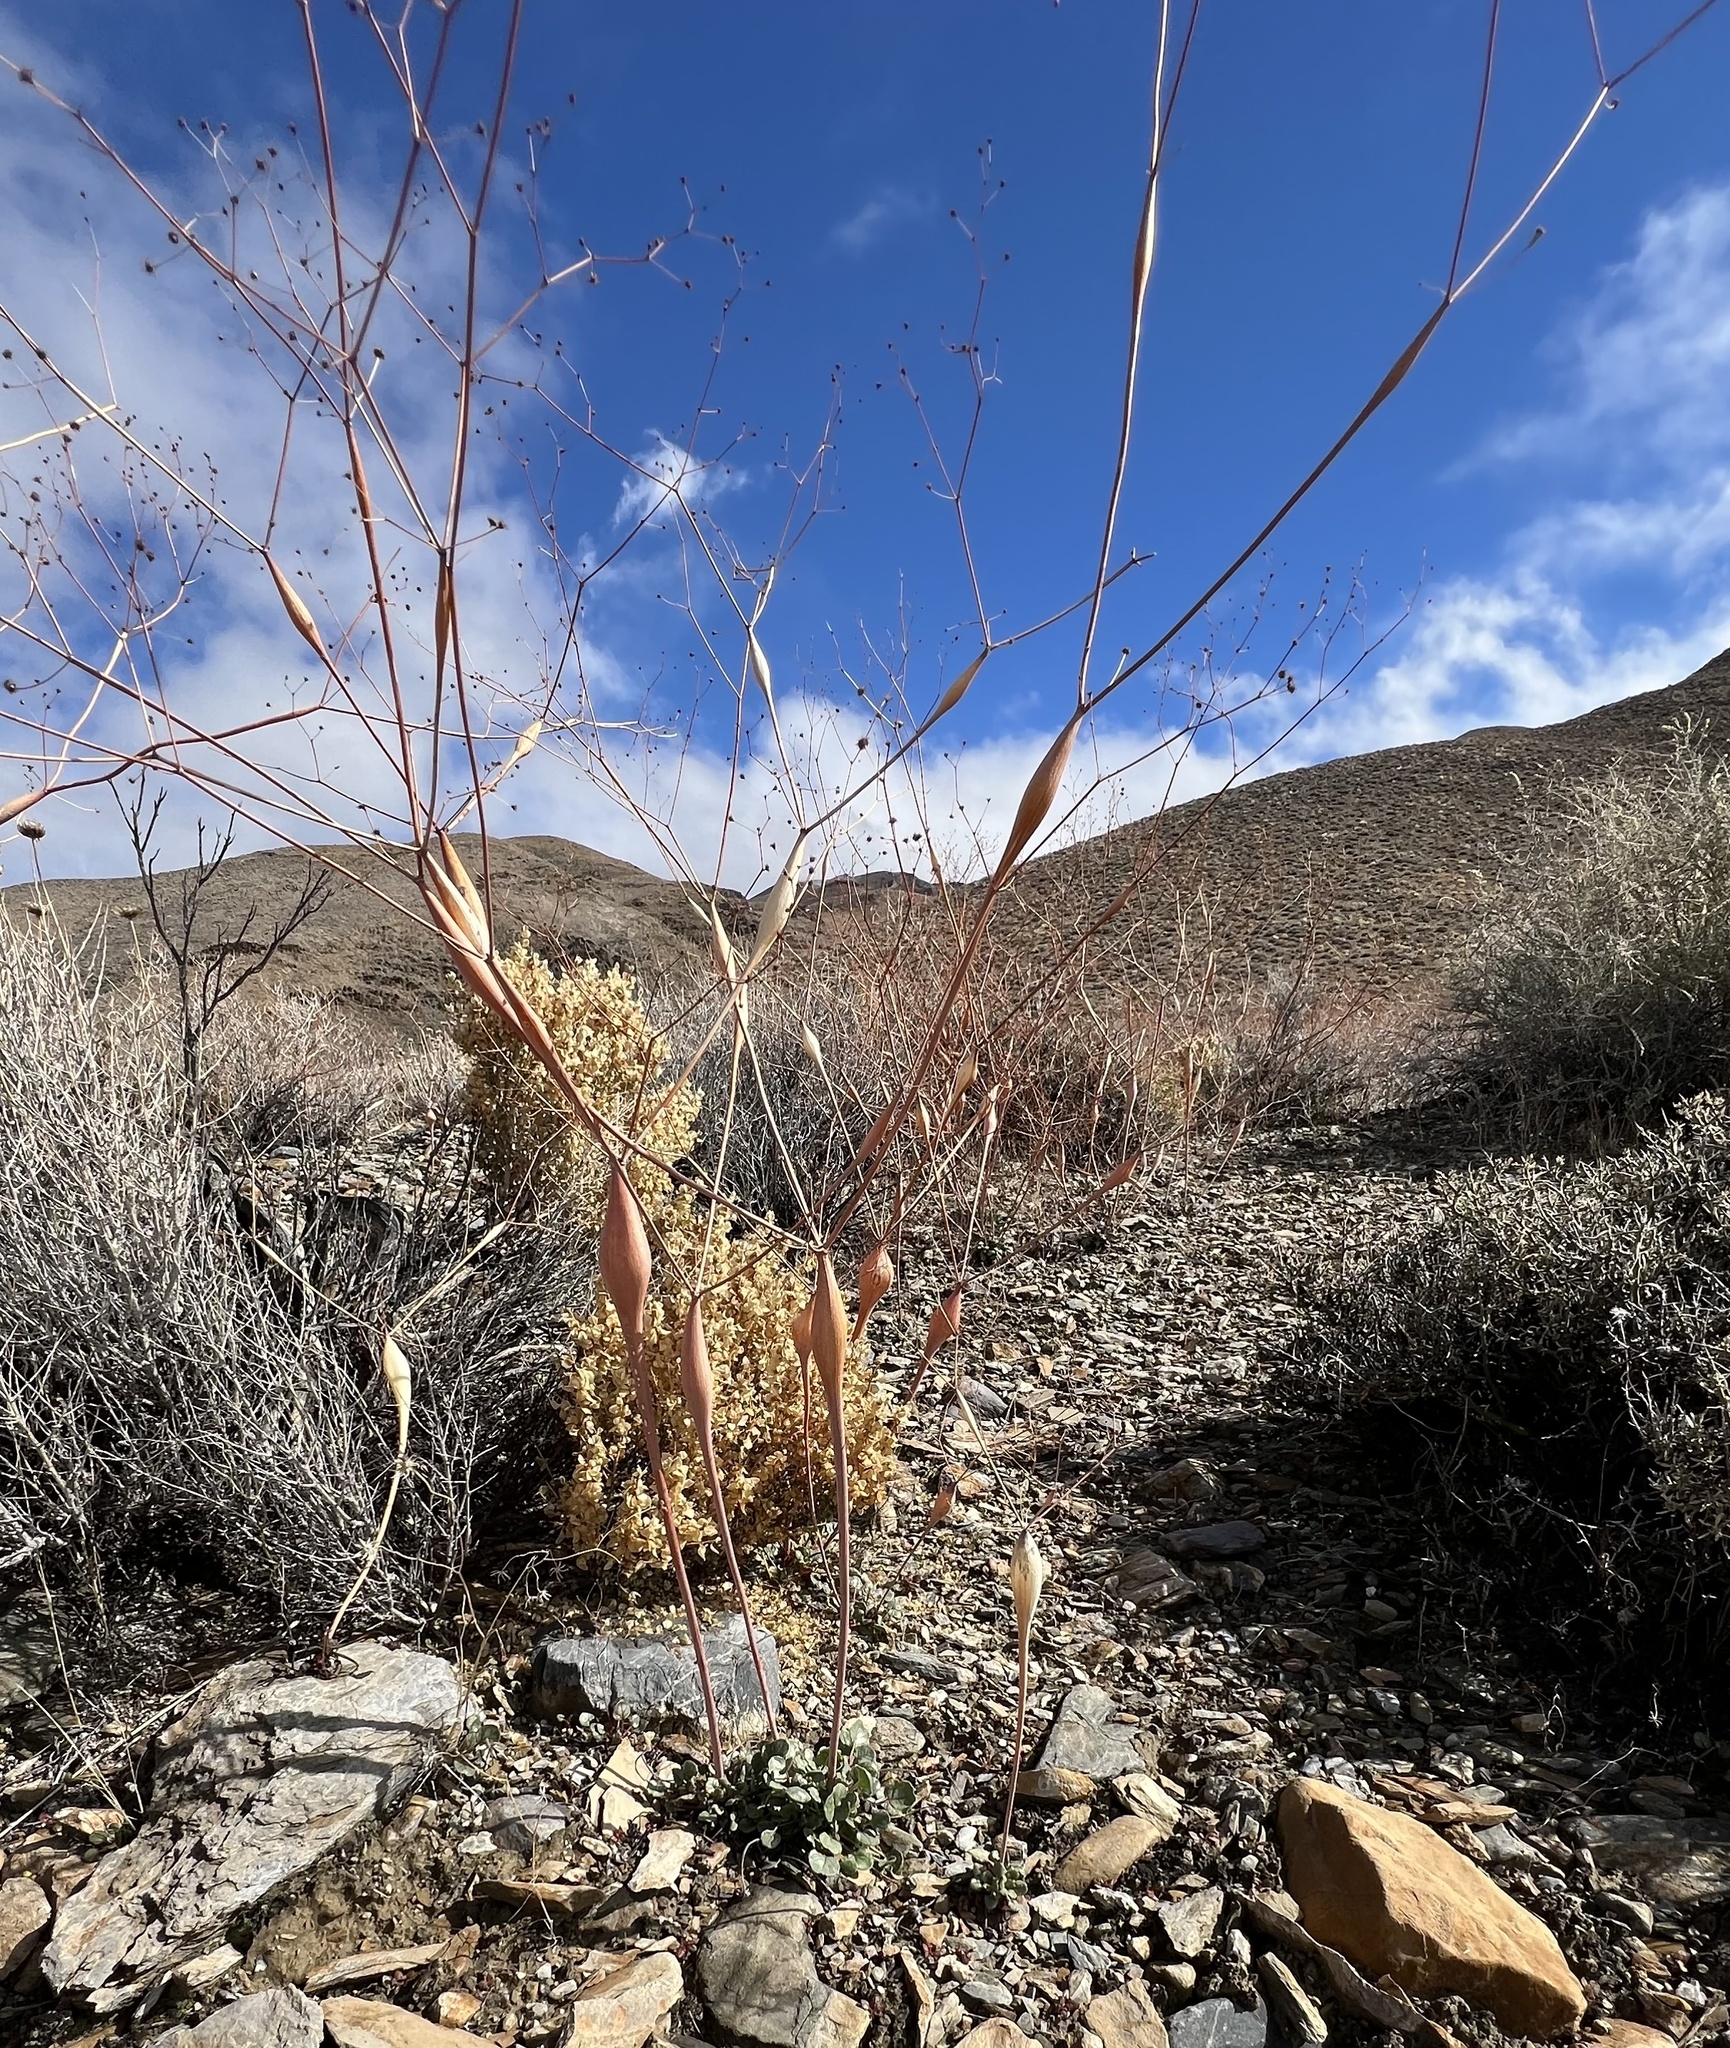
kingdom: Plantae
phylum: Tracheophyta
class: Magnoliopsida
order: Caryophyllales
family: Polygonaceae
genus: Eriogonum
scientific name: Eriogonum inflatum
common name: Desert trumpet
